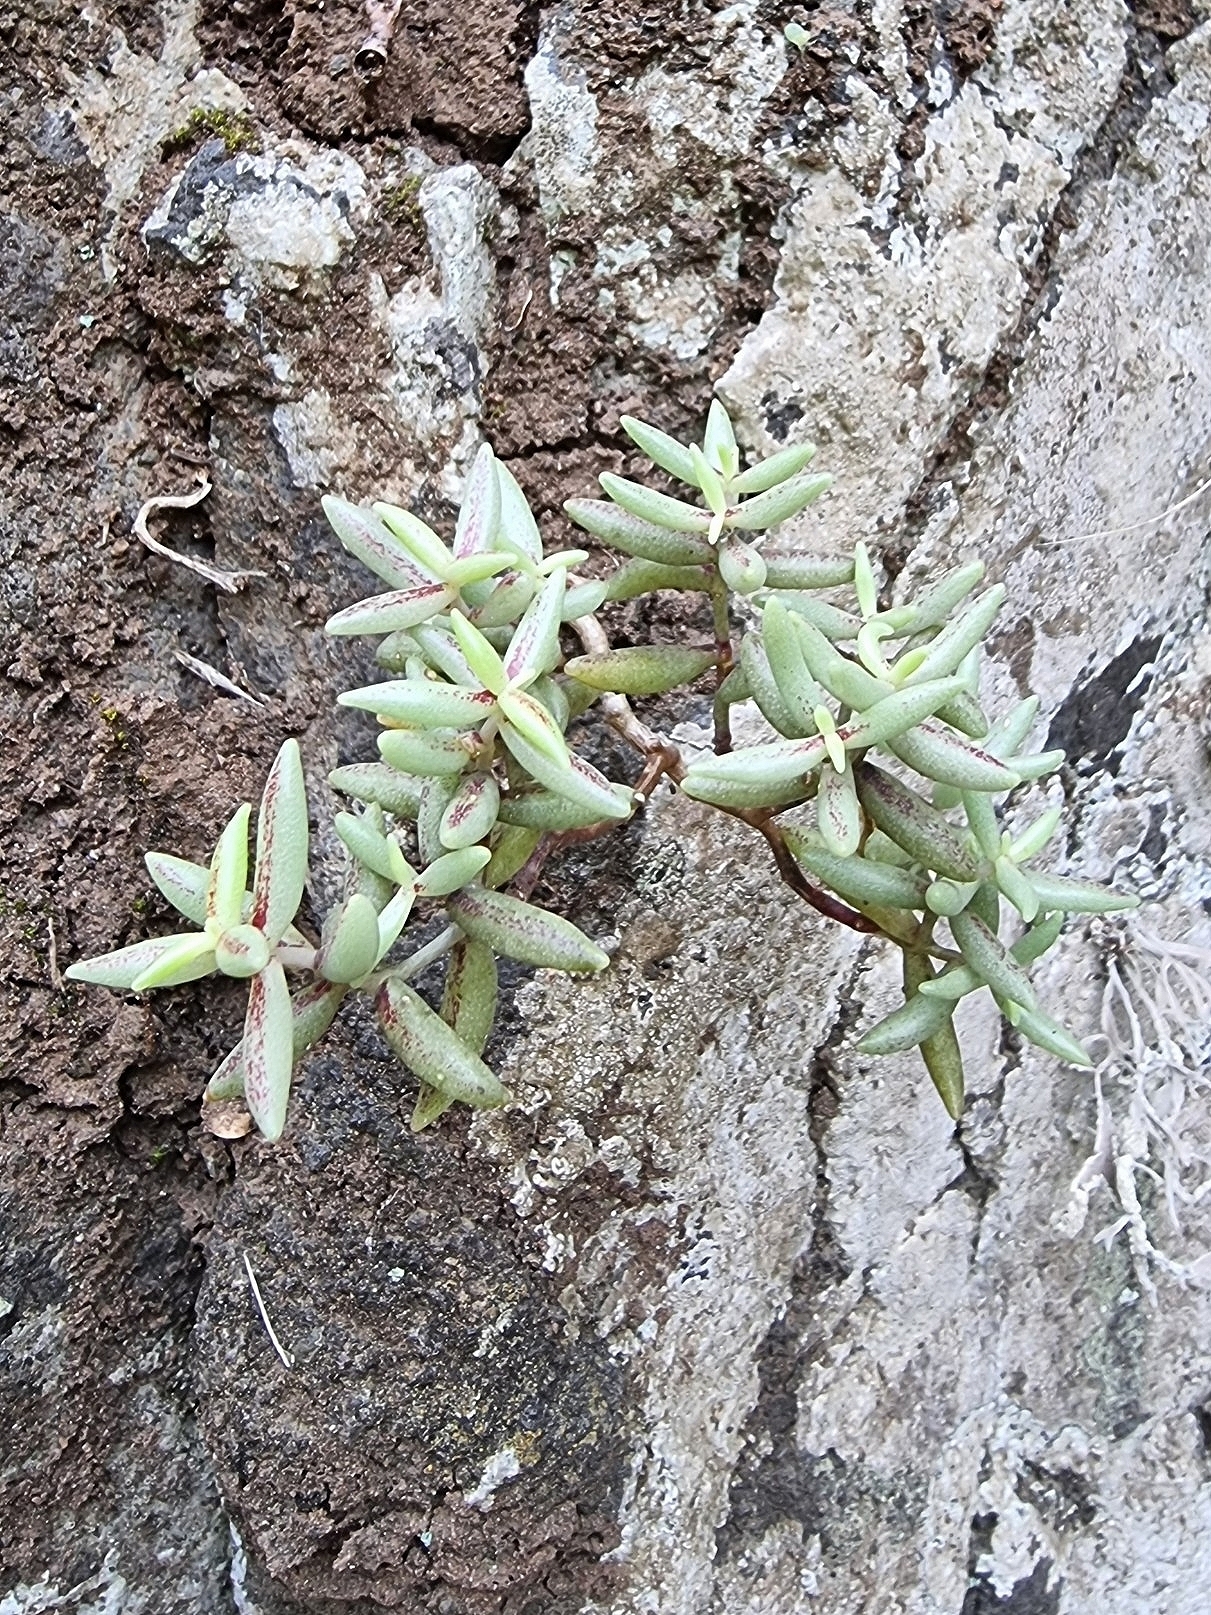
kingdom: Plantae
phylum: Tracheophyta
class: Magnoliopsida
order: Saxifragales
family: Crassulaceae
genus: Sedum
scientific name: Sedum fusiforme
